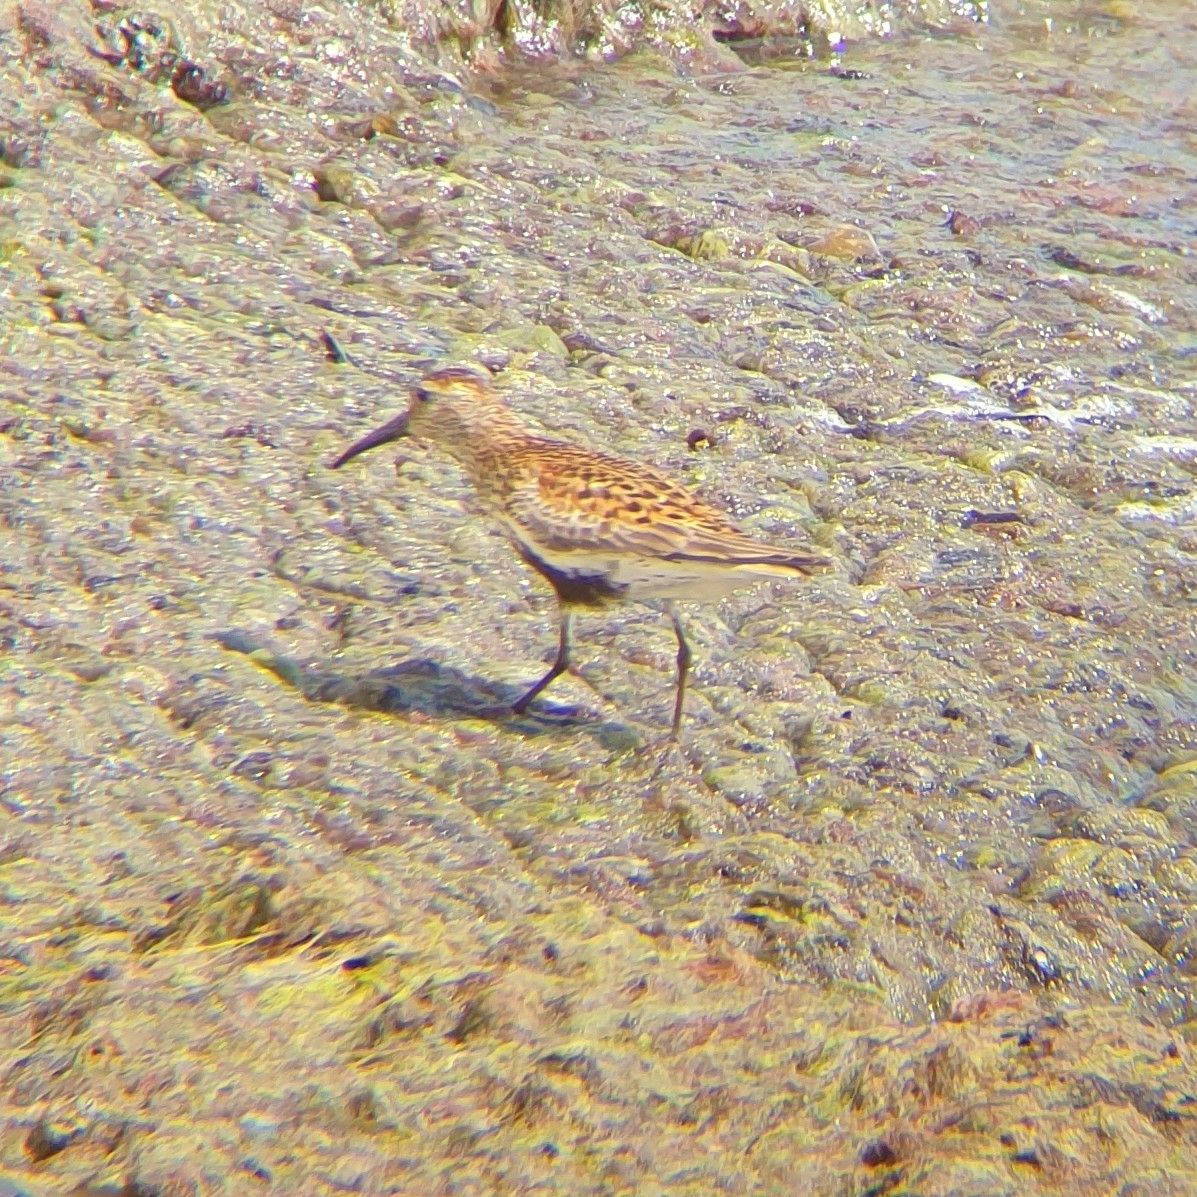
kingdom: Animalia
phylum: Chordata
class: Aves
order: Charadriiformes
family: Scolopacidae
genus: Calidris
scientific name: Calidris alpina
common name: Dunlin
